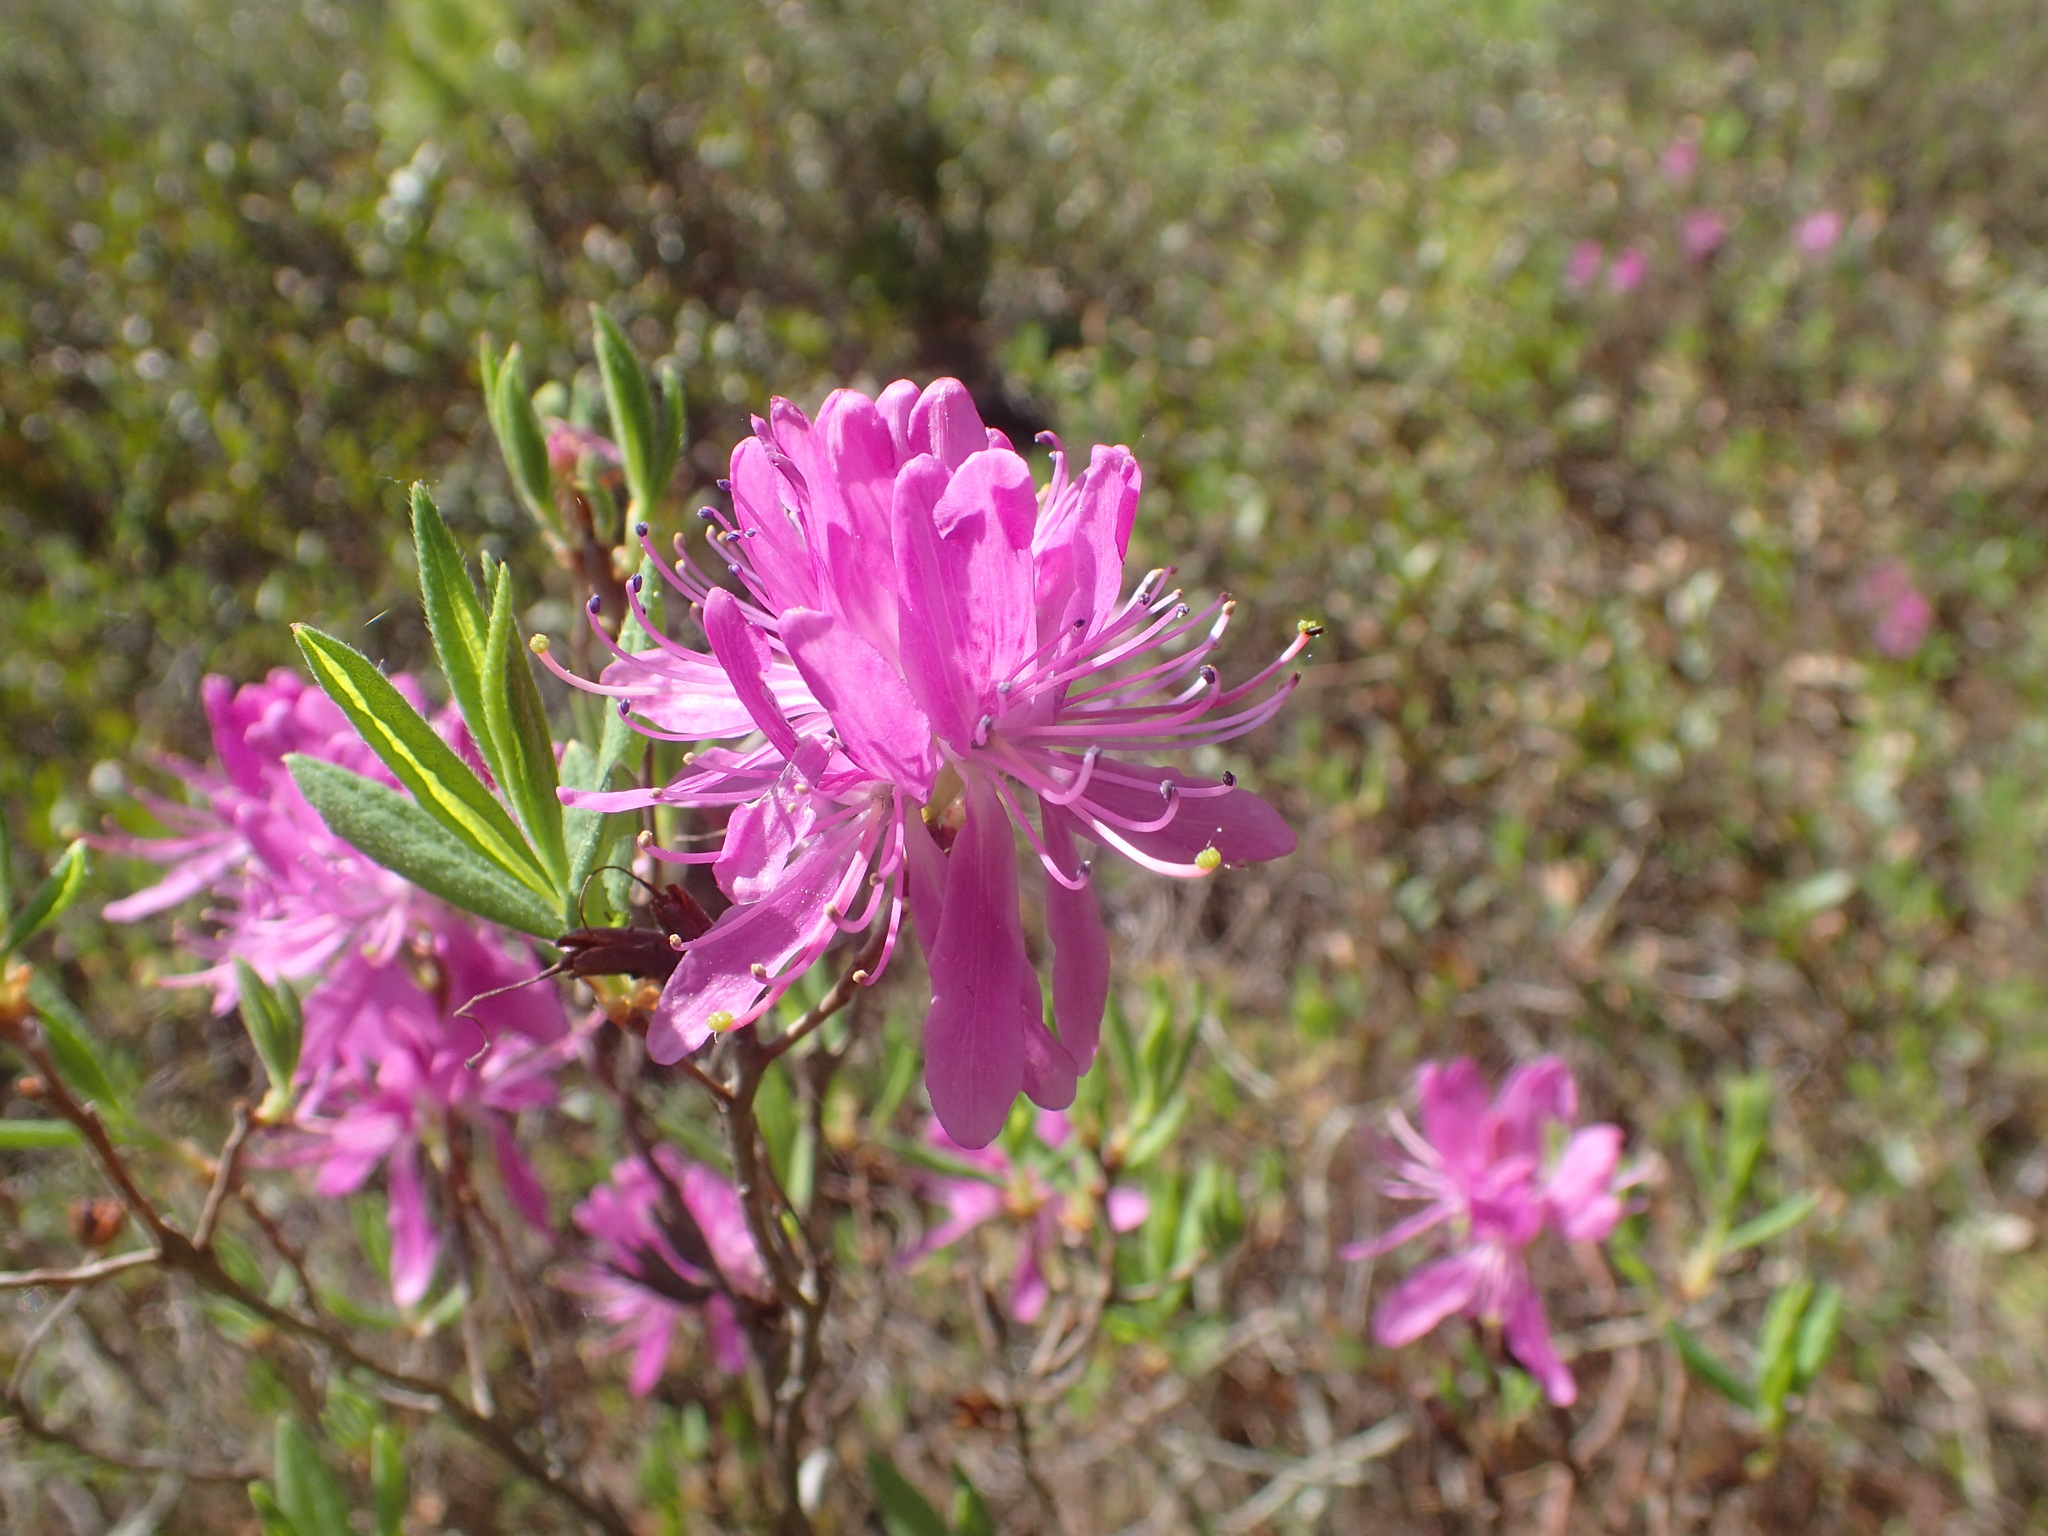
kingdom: Plantae
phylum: Tracheophyta
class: Magnoliopsida
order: Ericales
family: Ericaceae
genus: Rhododendron
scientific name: Rhododendron canadense
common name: Rhodora
